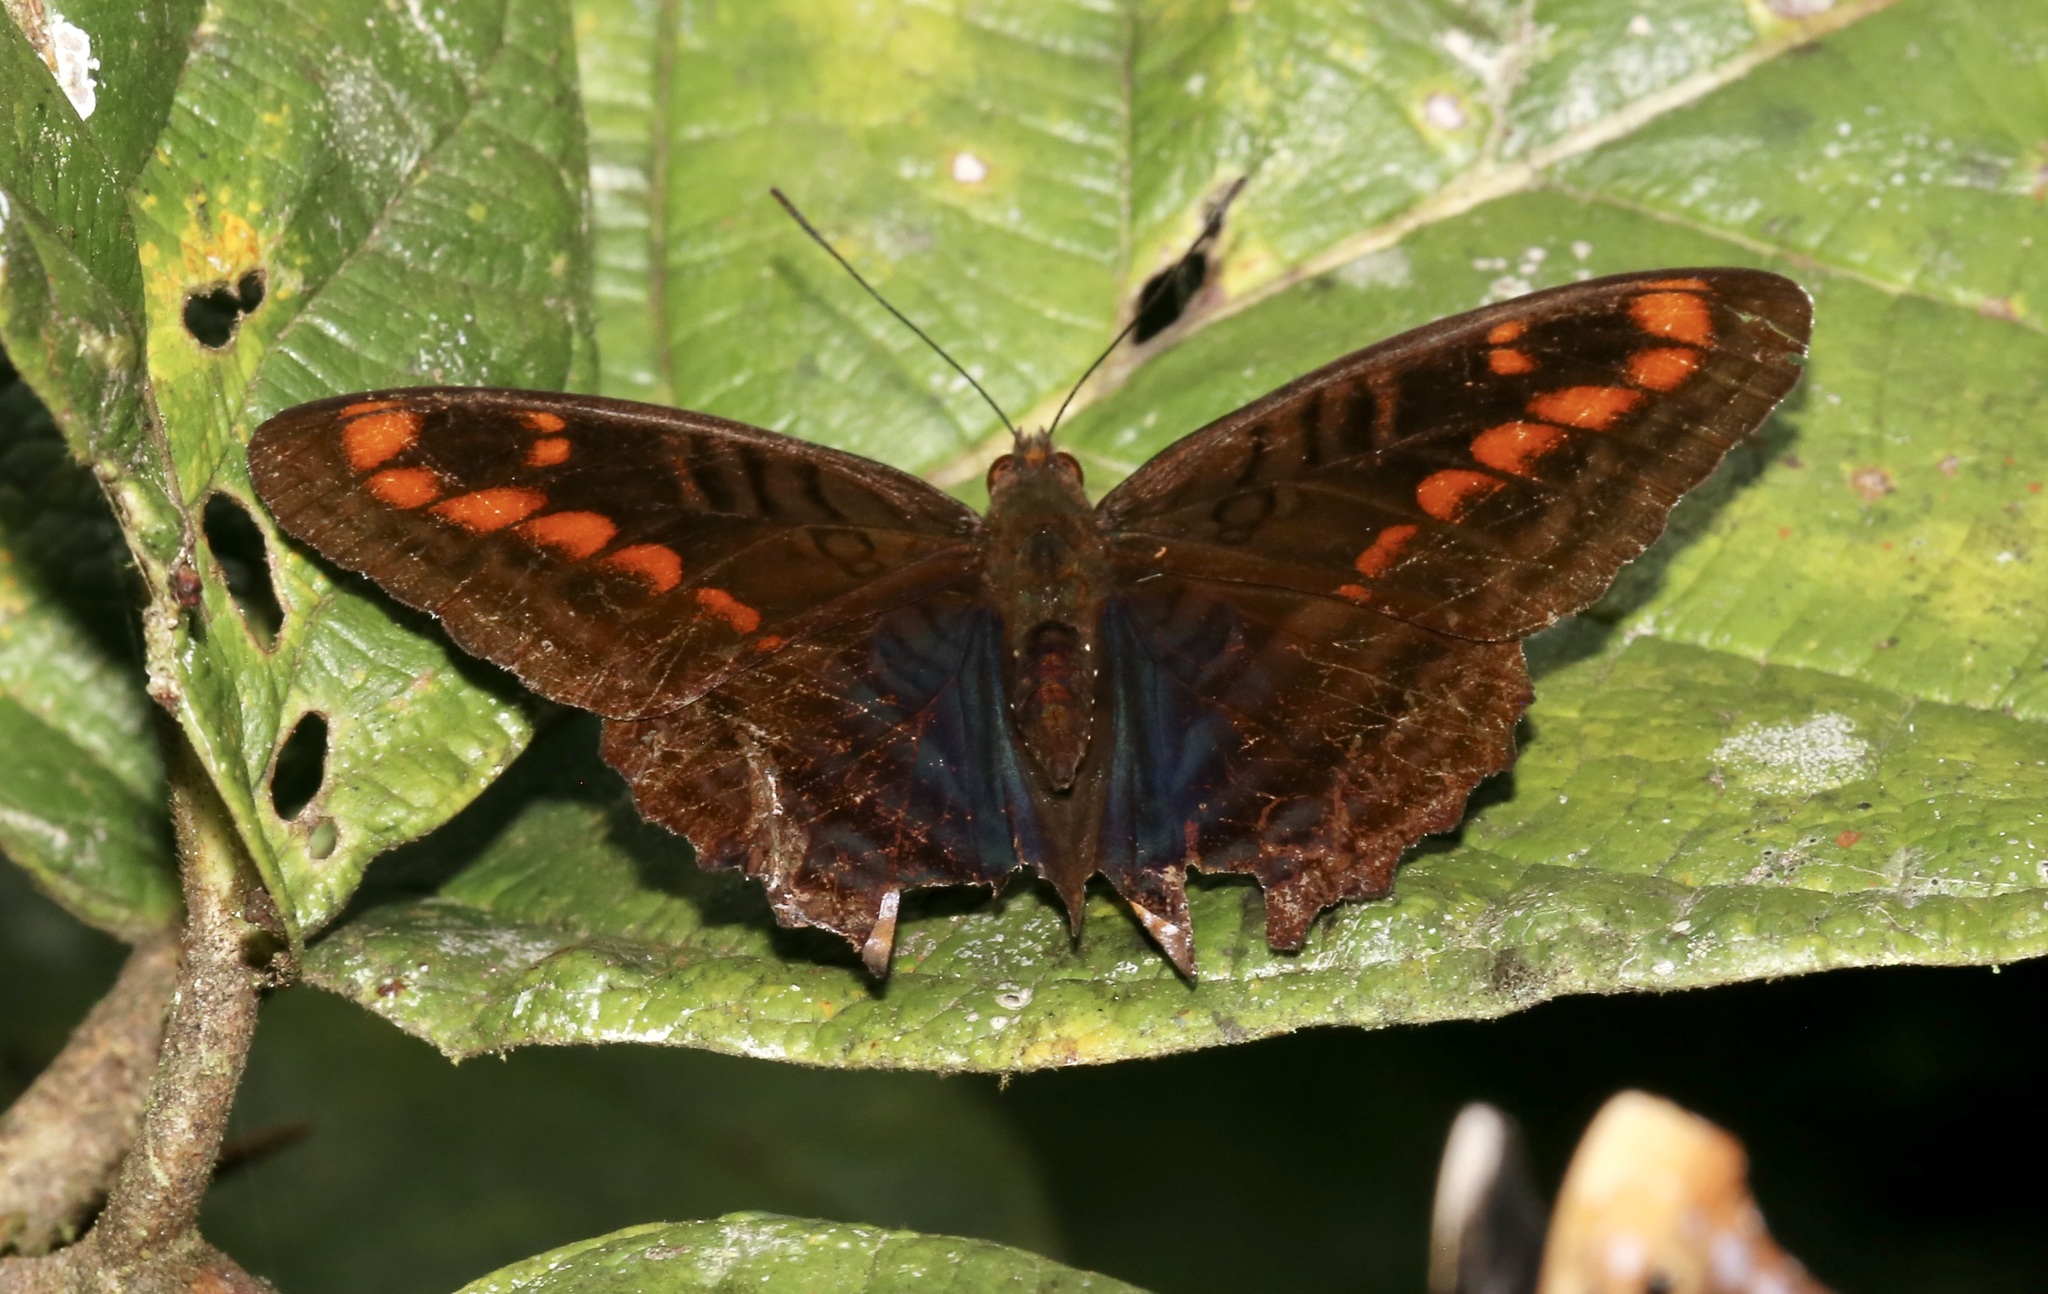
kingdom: Animalia
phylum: Arthropoda
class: Insecta
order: Lepidoptera
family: Nymphalidae
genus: Limenitis
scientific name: Limenitis rothschildi
